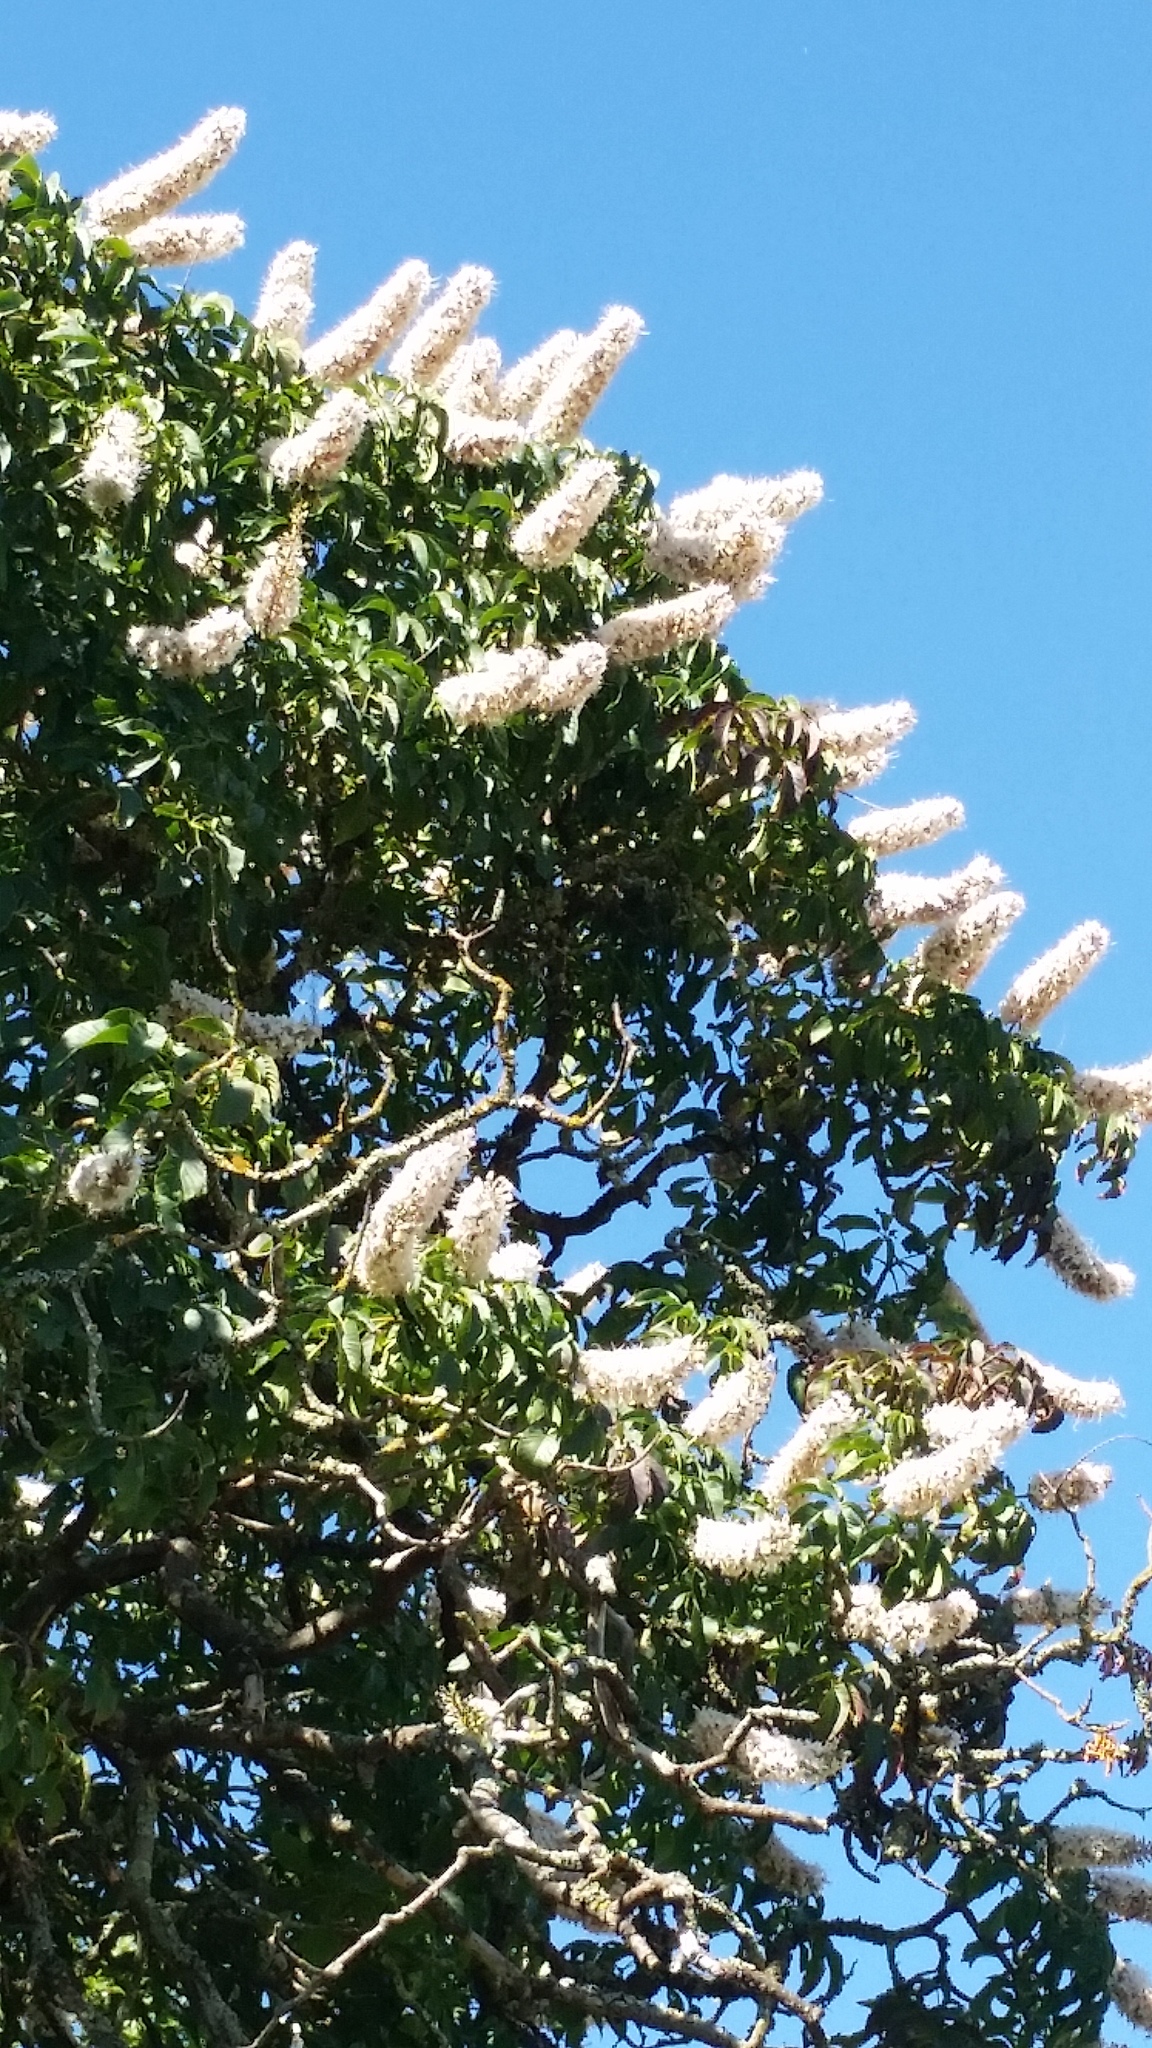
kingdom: Plantae
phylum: Tracheophyta
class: Magnoliopsida
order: Sapindales
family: Sapindaceae
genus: Aesculus
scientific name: Aesculus californica
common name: California buckeye
